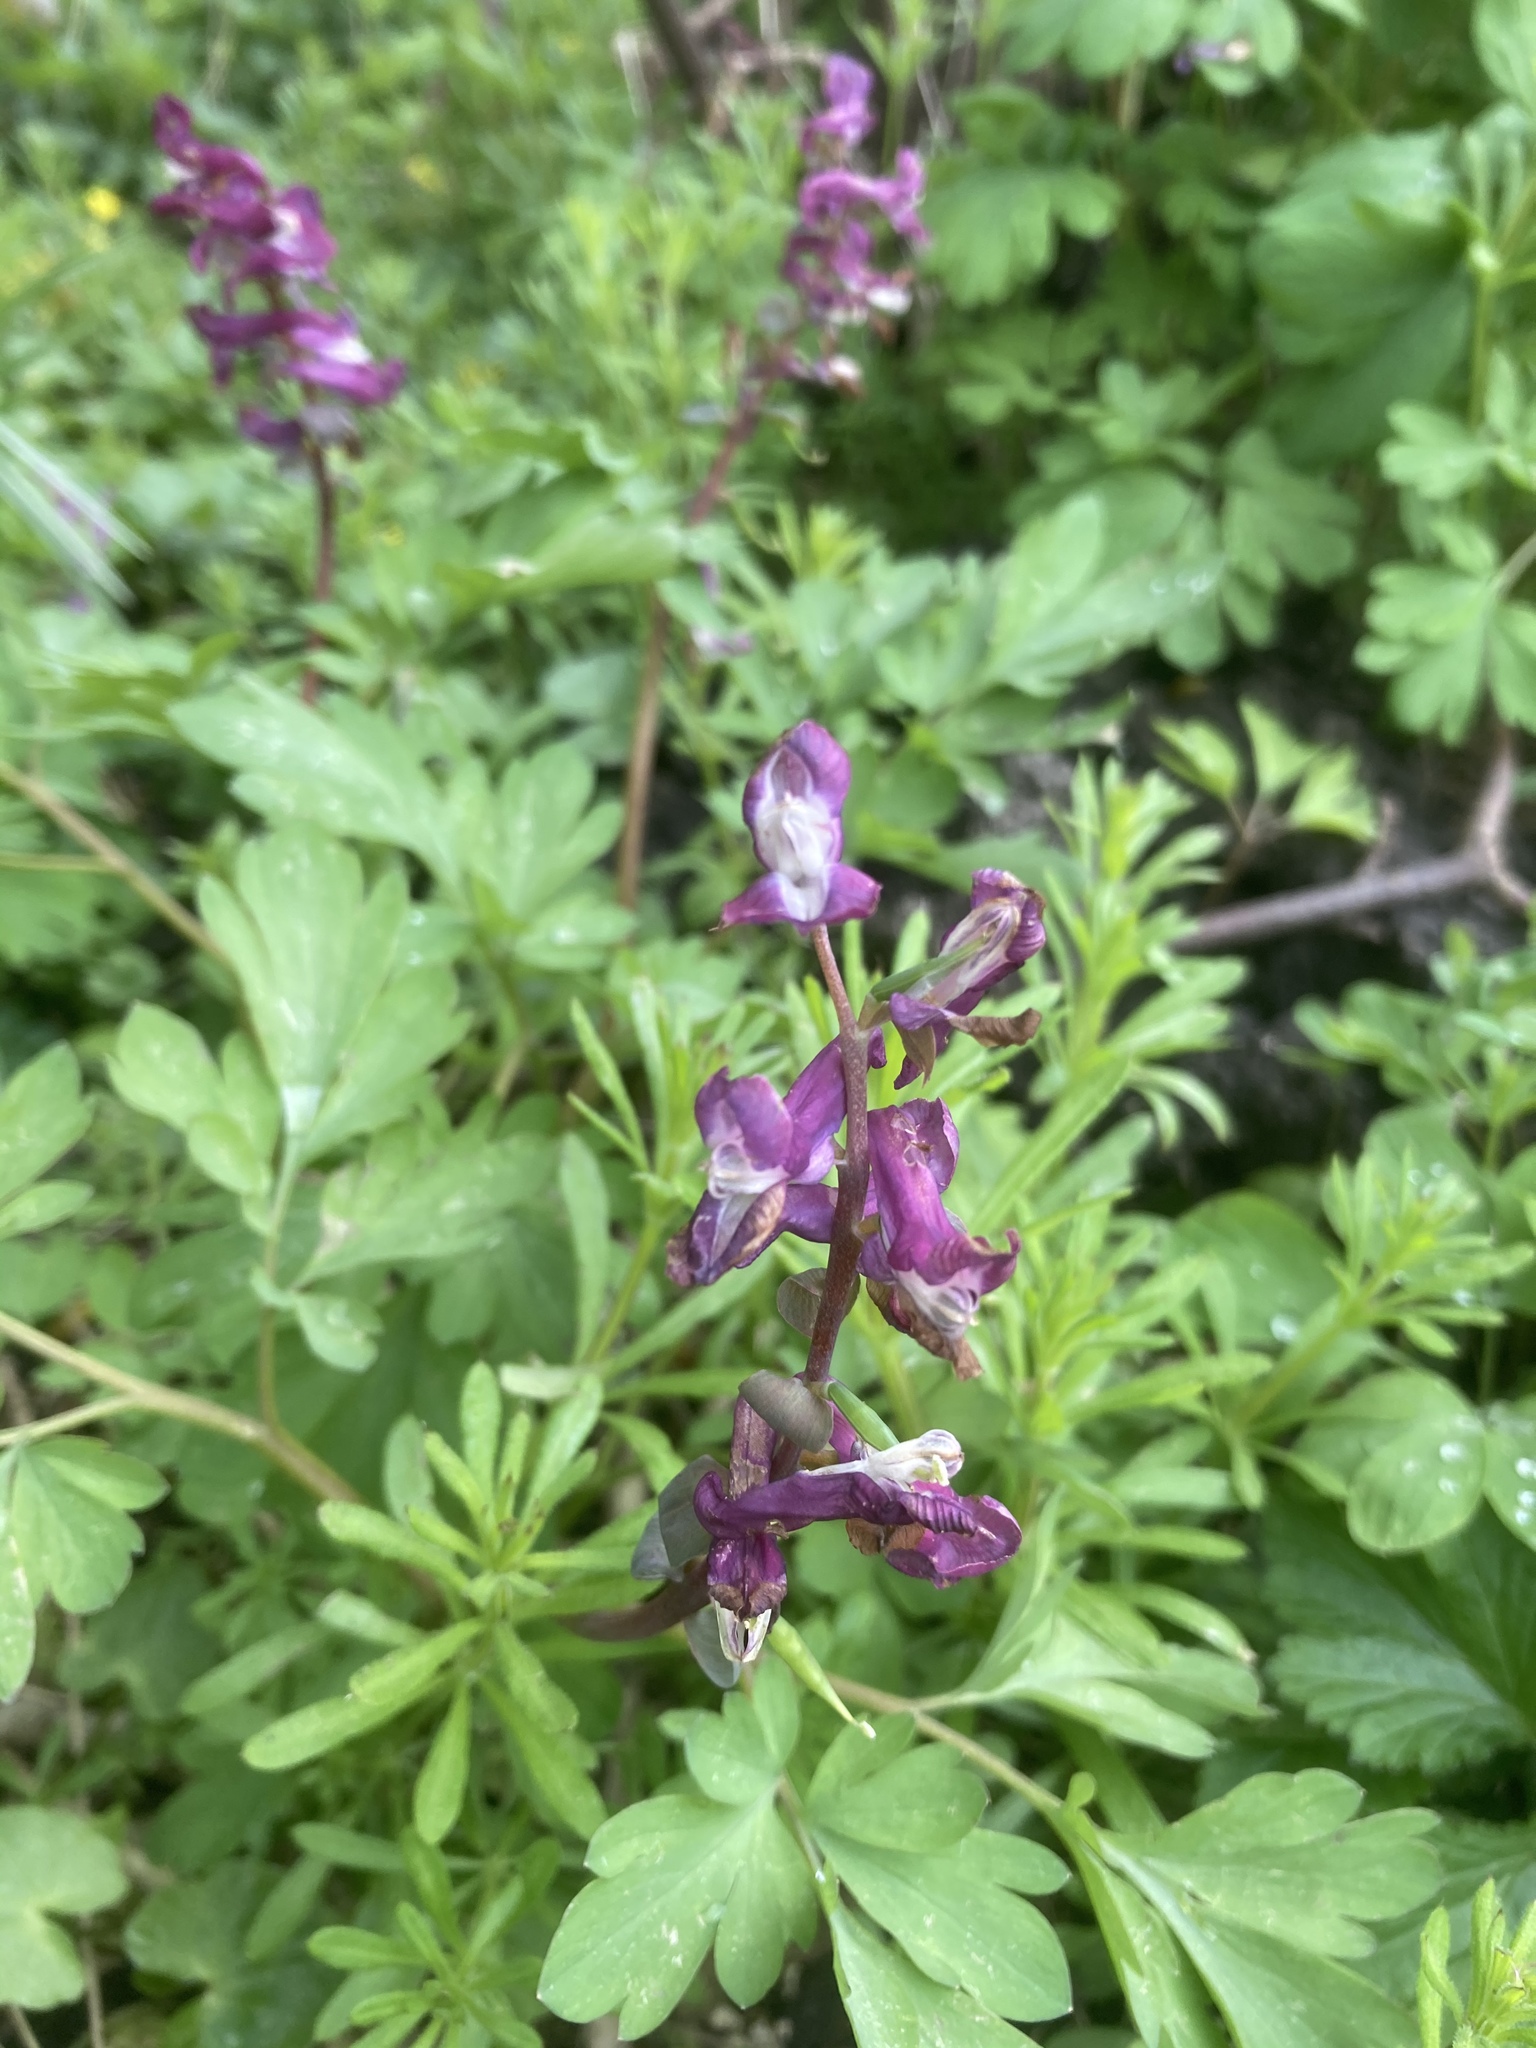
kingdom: Plantae
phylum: Tracheophyta
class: Magnoliopsida
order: Ranunculales
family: Papaveraceae
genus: Corydalis
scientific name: Corydalis cava
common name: Hollowroot
